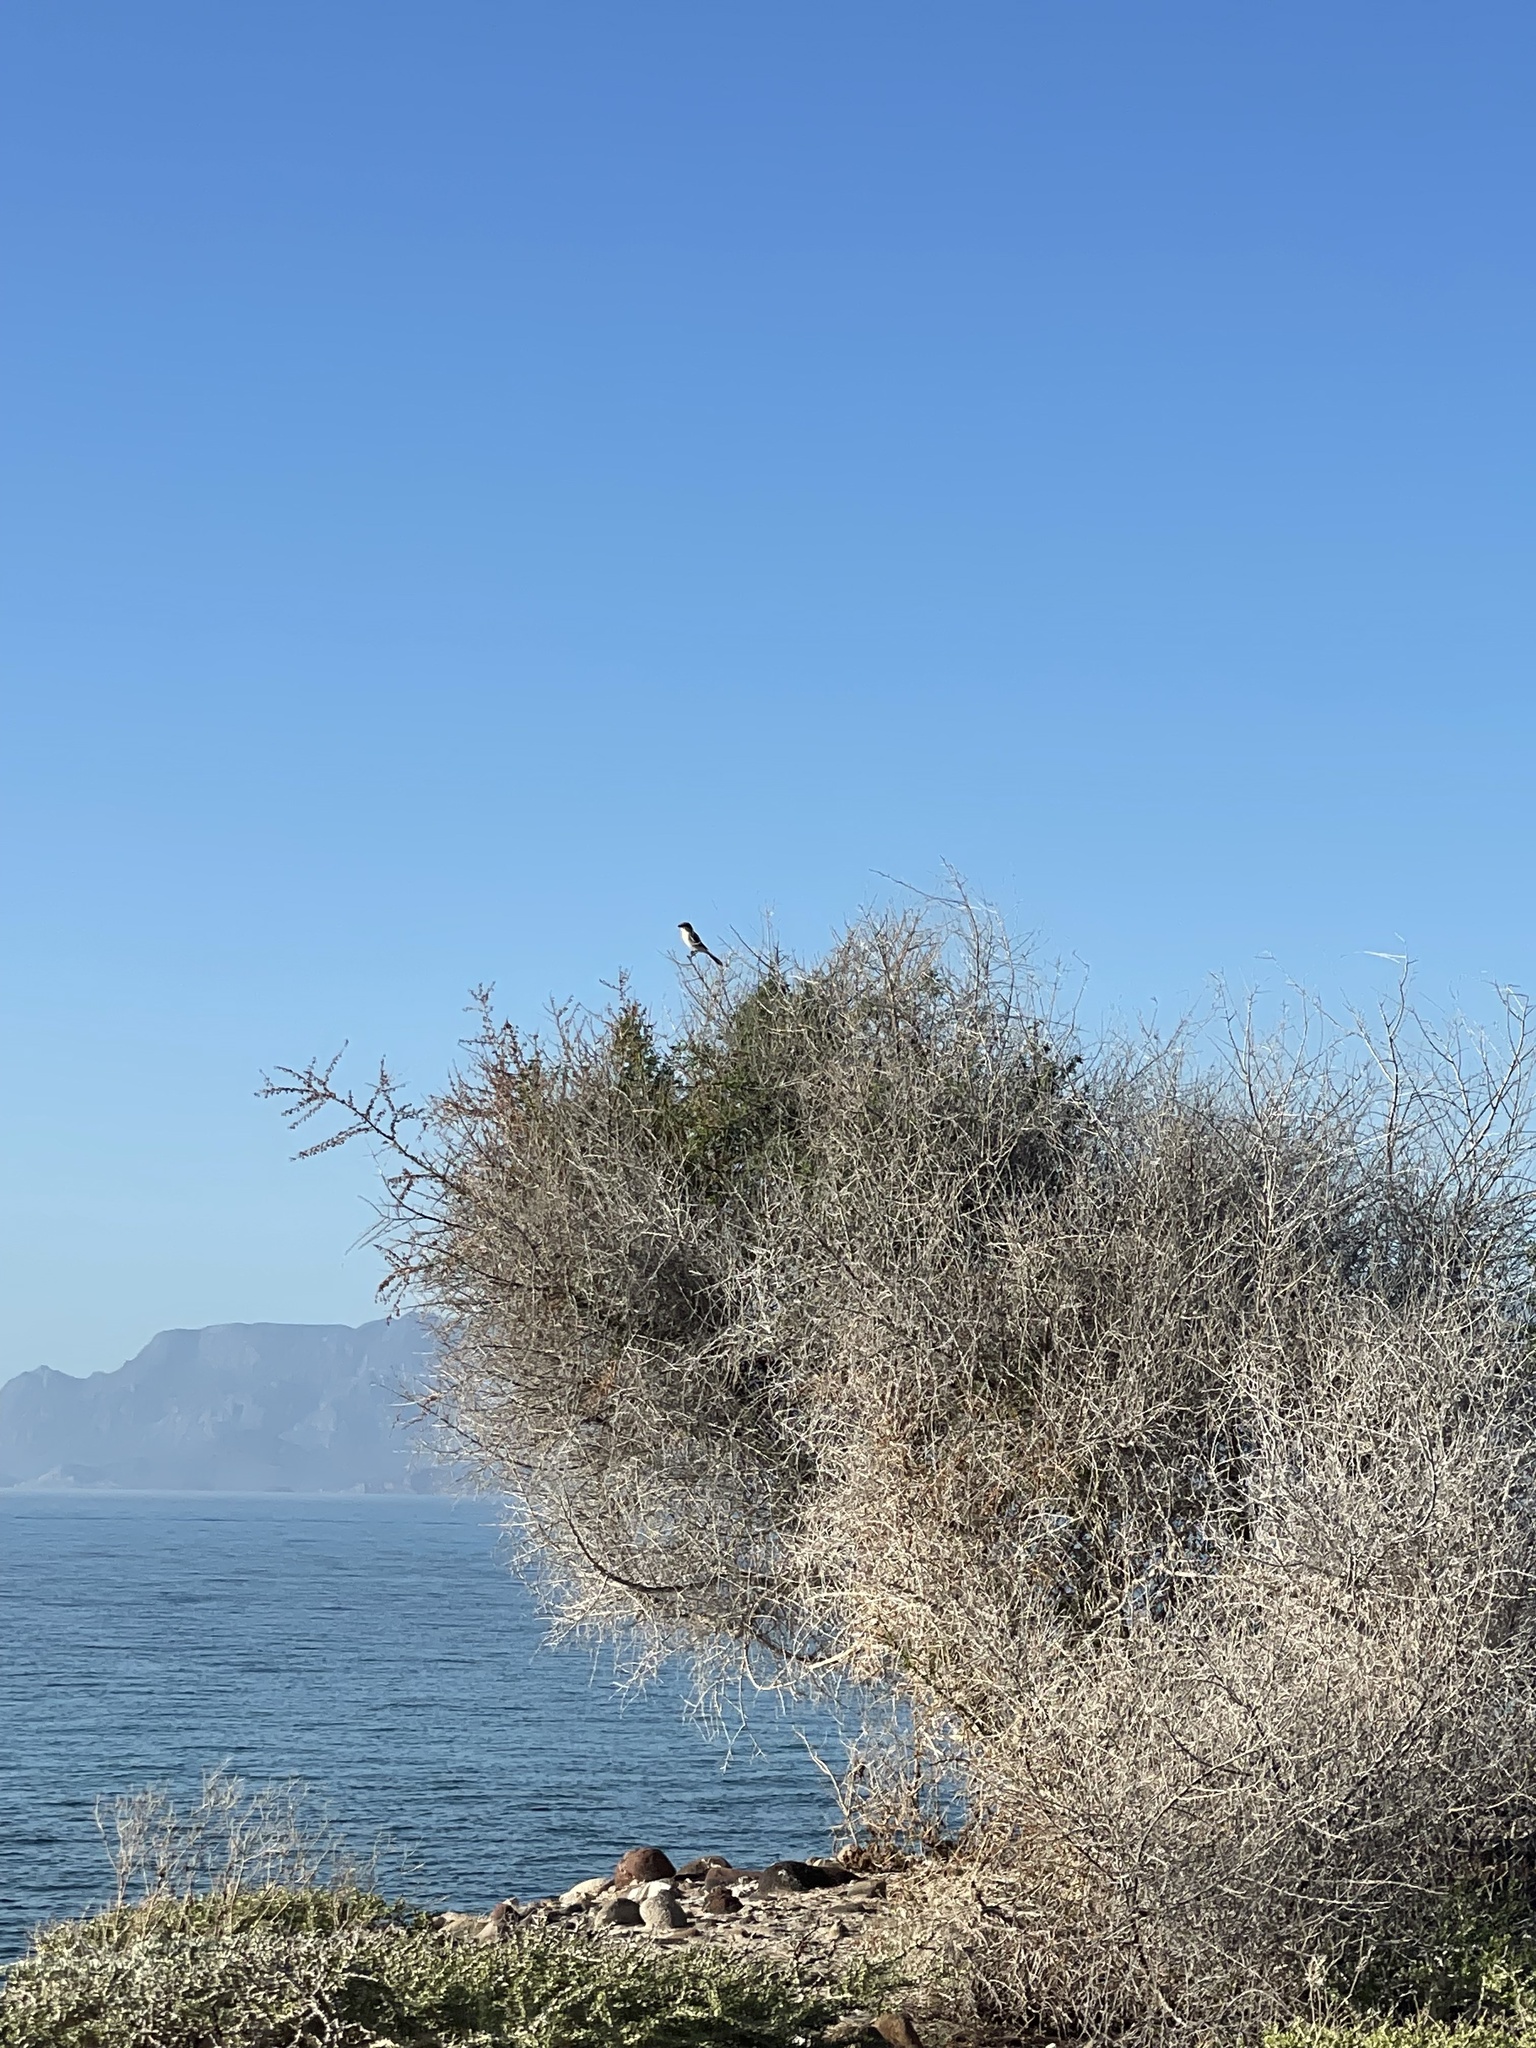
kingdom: Animalia
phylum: Chordata
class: Aves
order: Passeriformes
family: Laniidae
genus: Lanius
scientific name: Lanius ludovicianus
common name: Loggerhead shrike
